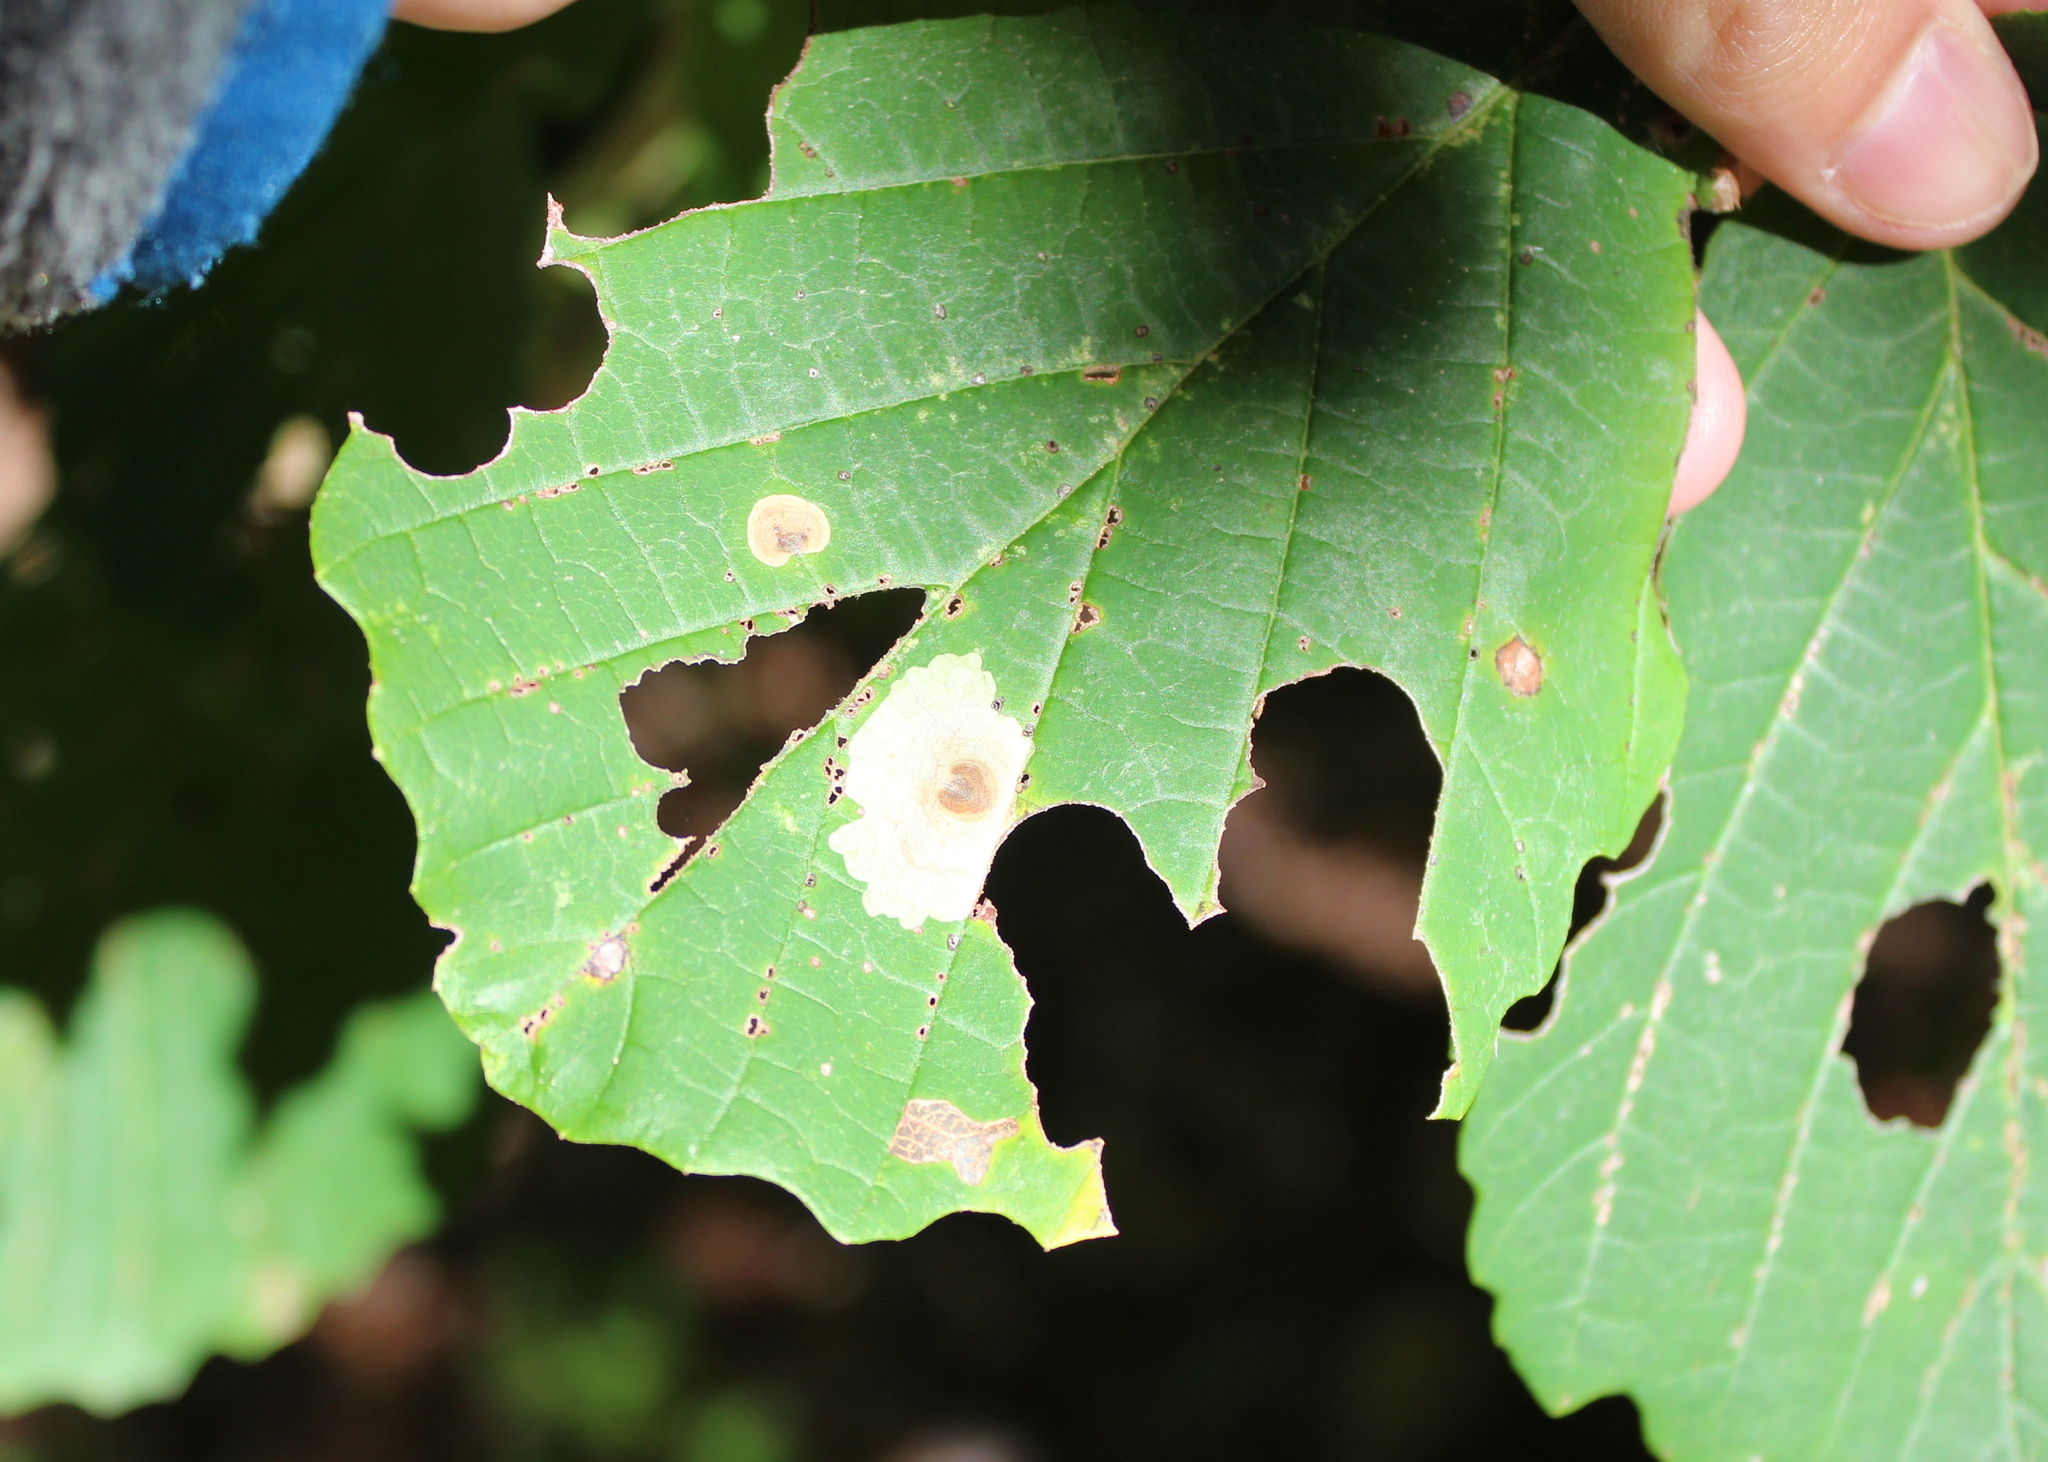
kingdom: Animalia
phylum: Arthropoda
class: Insecta
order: Lepidoptera
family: Gracillariidae
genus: Cameraria
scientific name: Cameraria hamameliella
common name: Witchhazel leafminer
